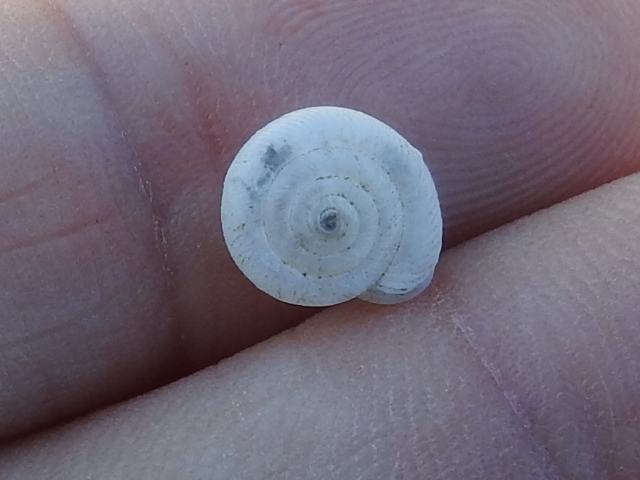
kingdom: Animalia
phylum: Mollusca
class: Gastropoda
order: Stylommatophora
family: Polygyridae
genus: Linisa
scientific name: Linisa texasiana
